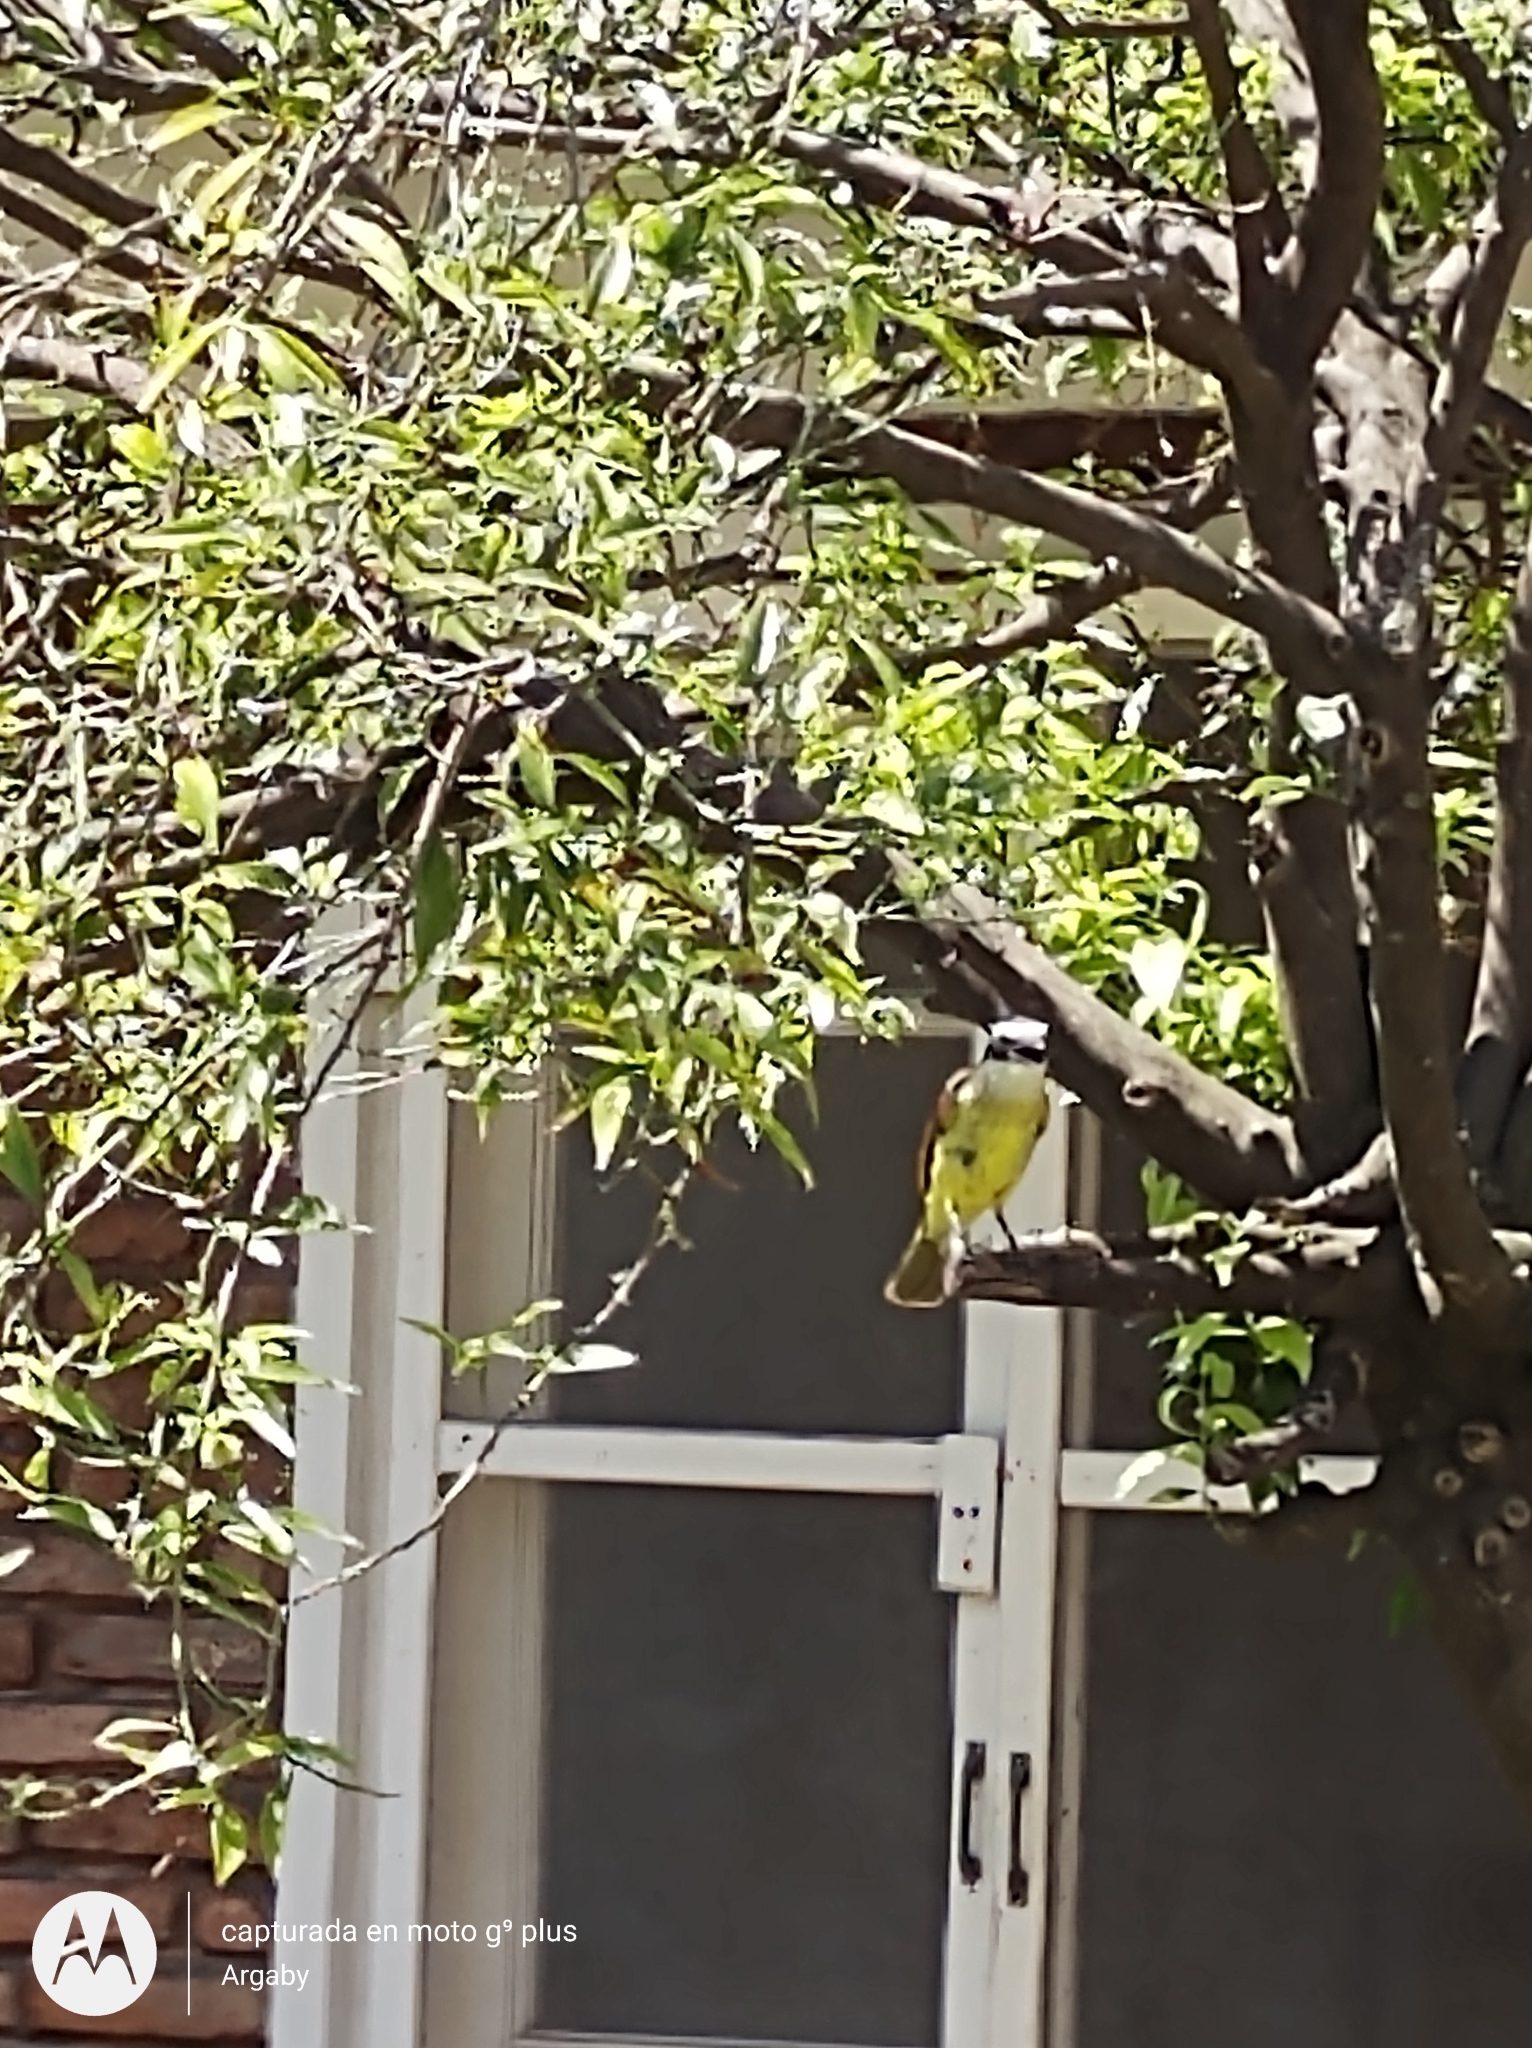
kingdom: Animalia
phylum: Chordata
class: Aves
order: Passeriformes
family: Tyrannidae
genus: Pitangus
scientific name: Pitangus sulphuratus
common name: Great kiskadee
